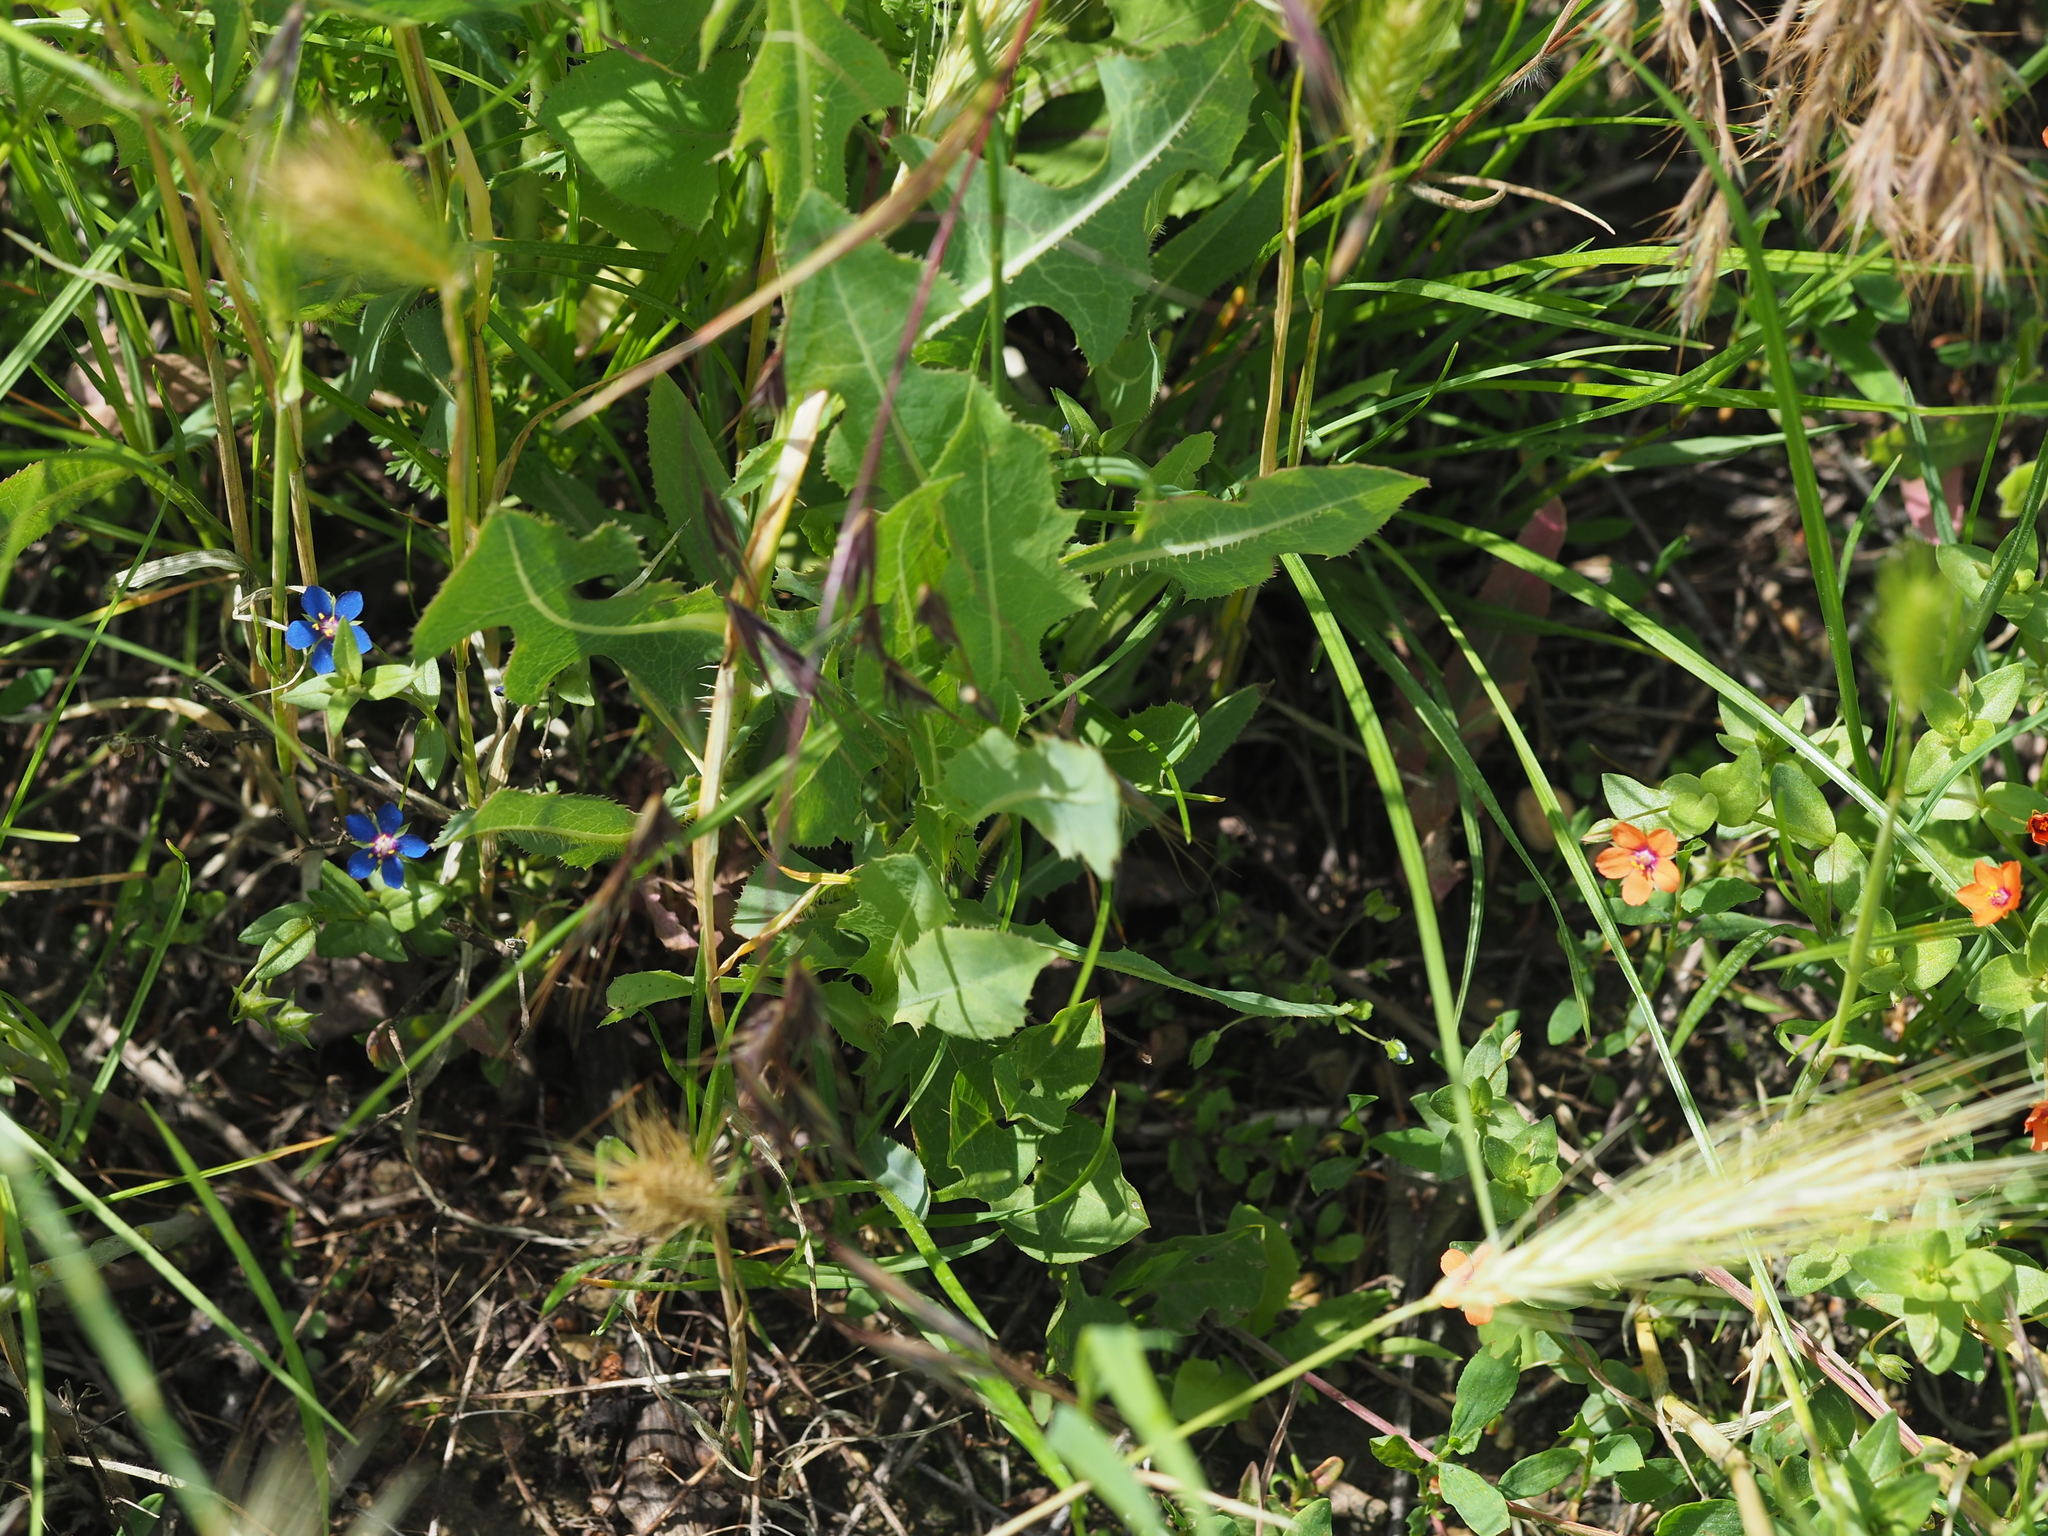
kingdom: Plantae
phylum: Tracheophyta
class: Magnoliopsida
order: Ericales
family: Primulaceae
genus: Lysimachia
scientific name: Lysimachia foemina
